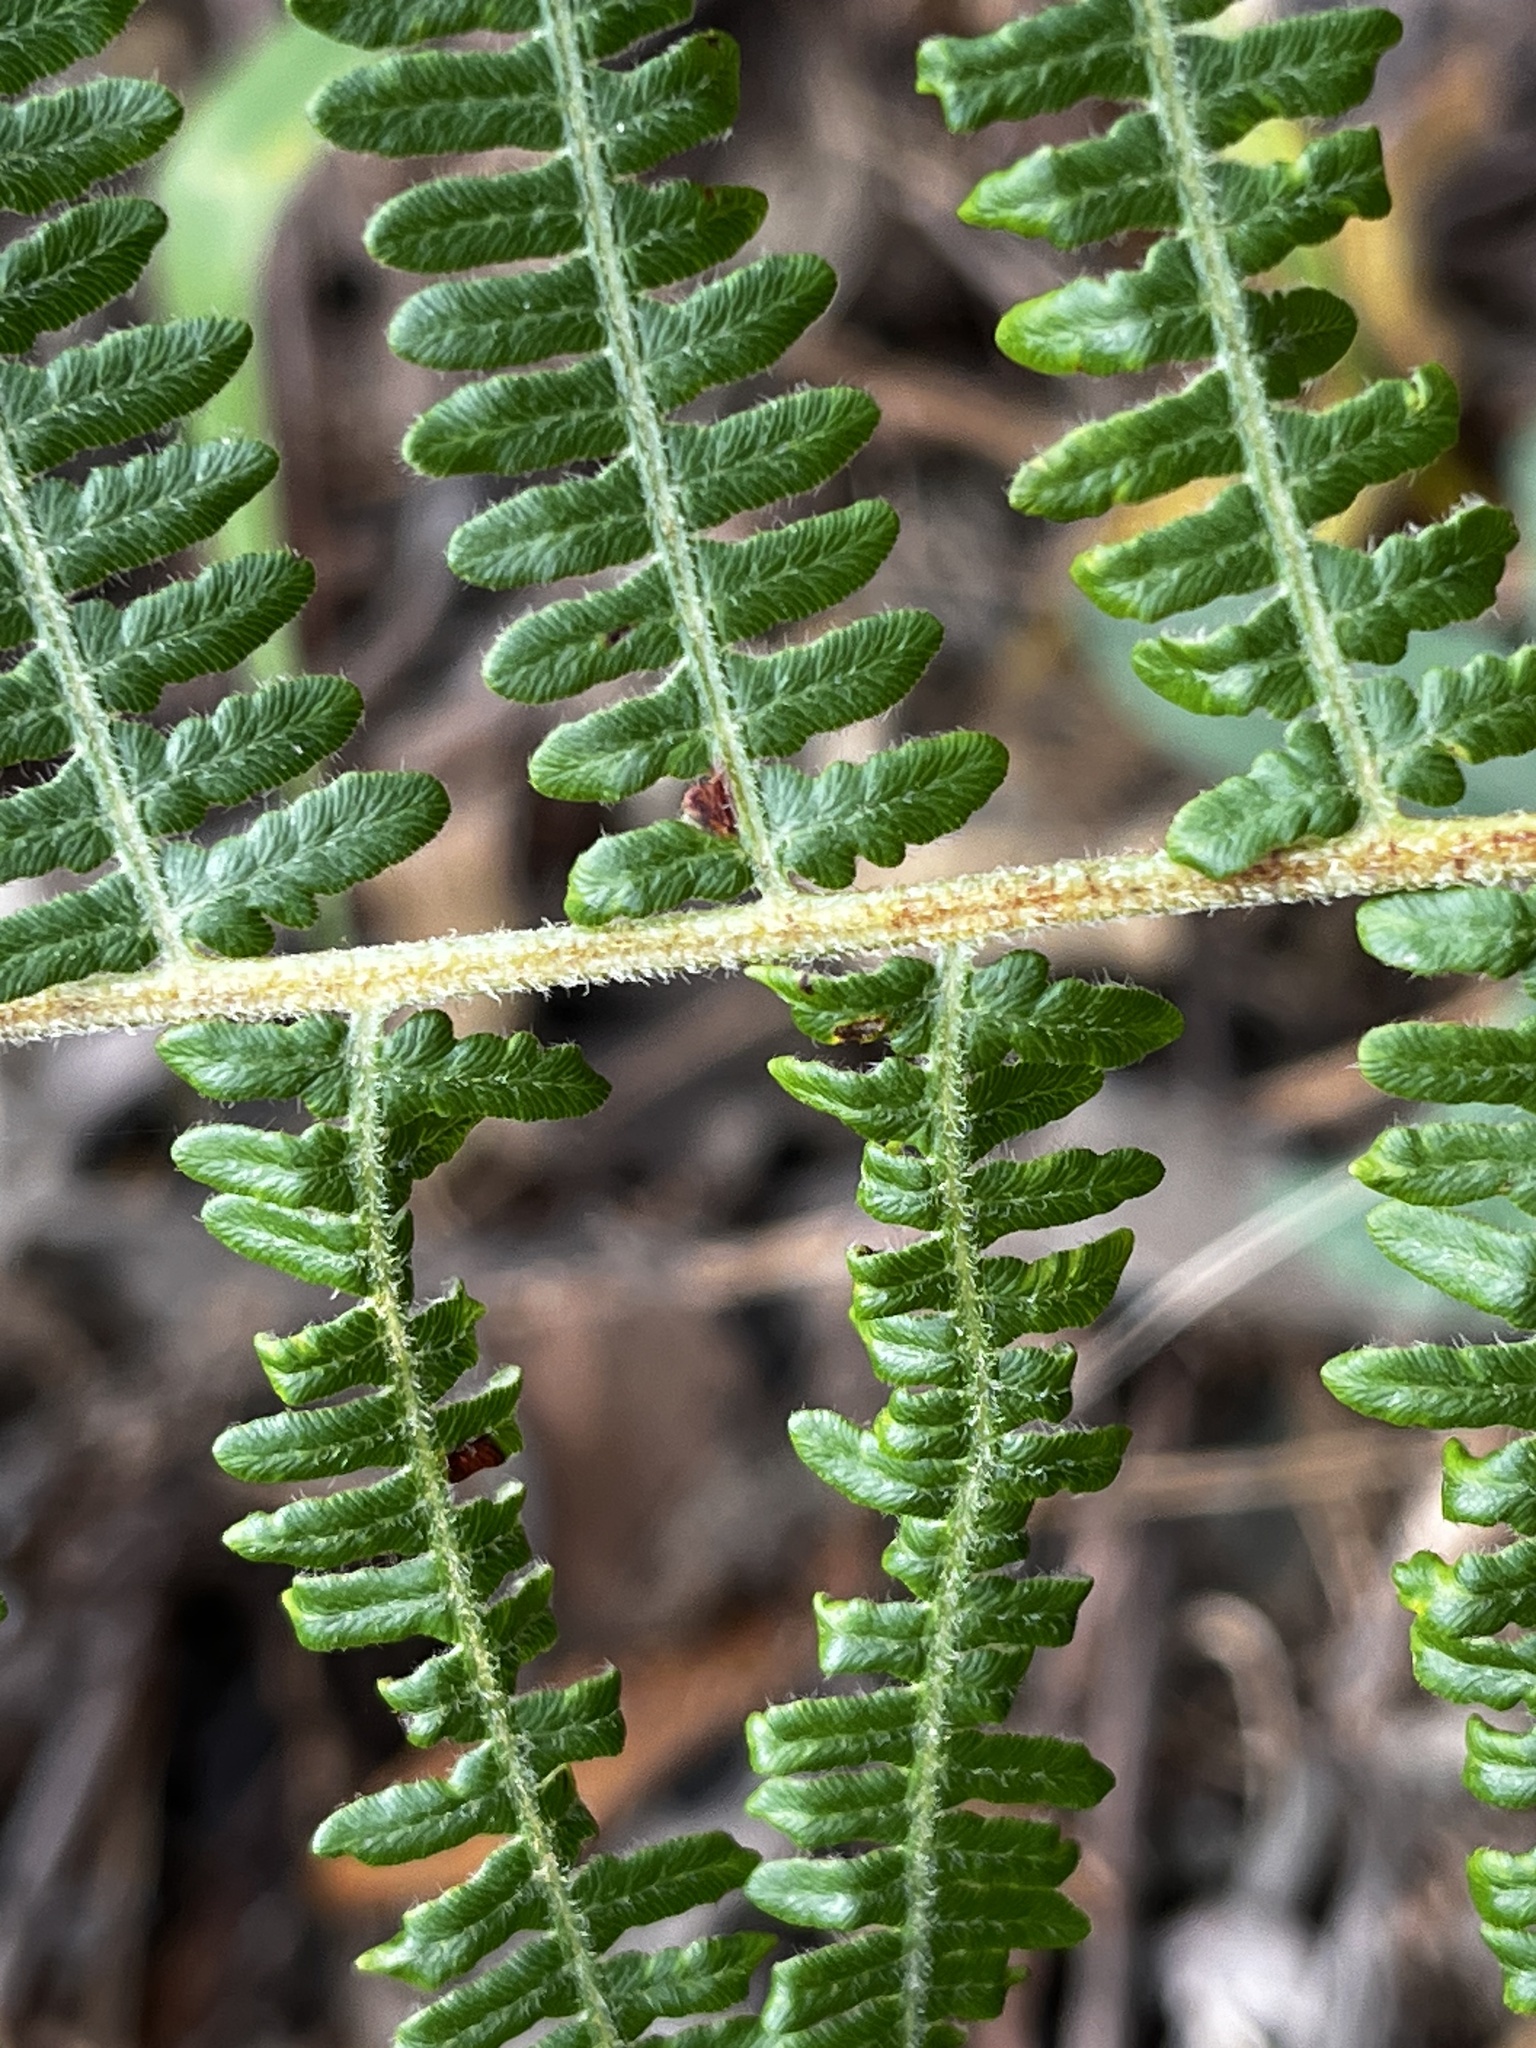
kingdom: Plantae
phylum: Tracheophyta
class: Polypodiopsida
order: Polypodiales
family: Dennstaedtiaceae
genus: Pteridium
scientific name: Pteridium aquilinum
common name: Bracken
